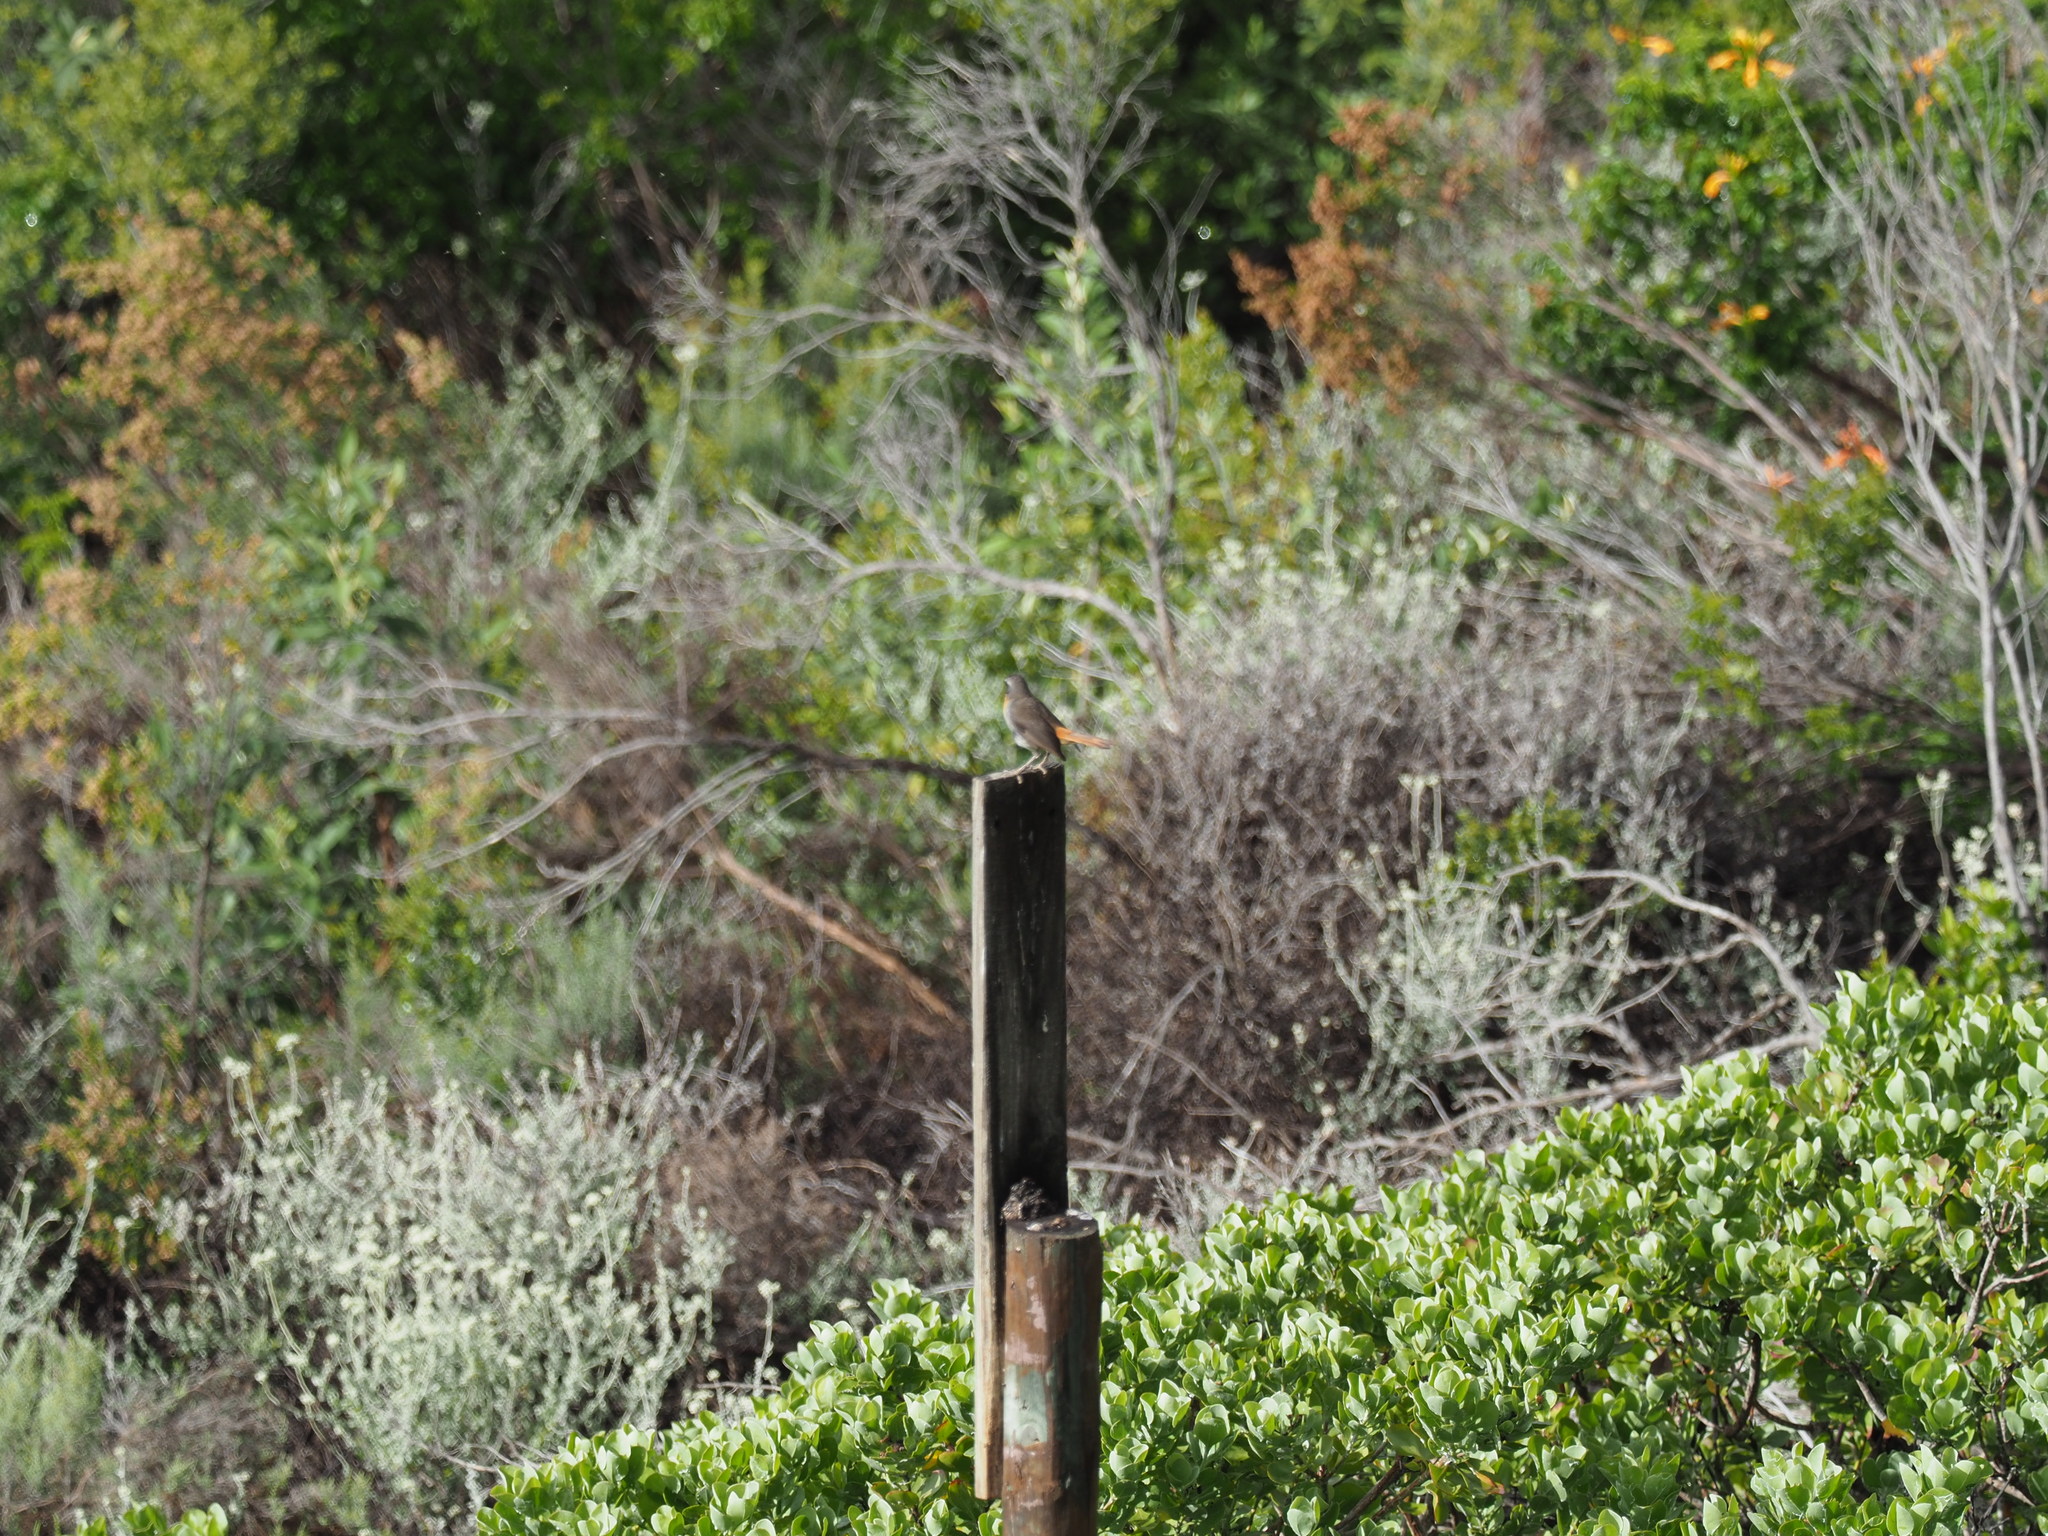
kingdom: Animalia
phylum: Chordata
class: Aves
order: Passeriformes
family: Muscicapidae
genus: Cossypha
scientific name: Cossypha caffra
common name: Cape robin-chat
